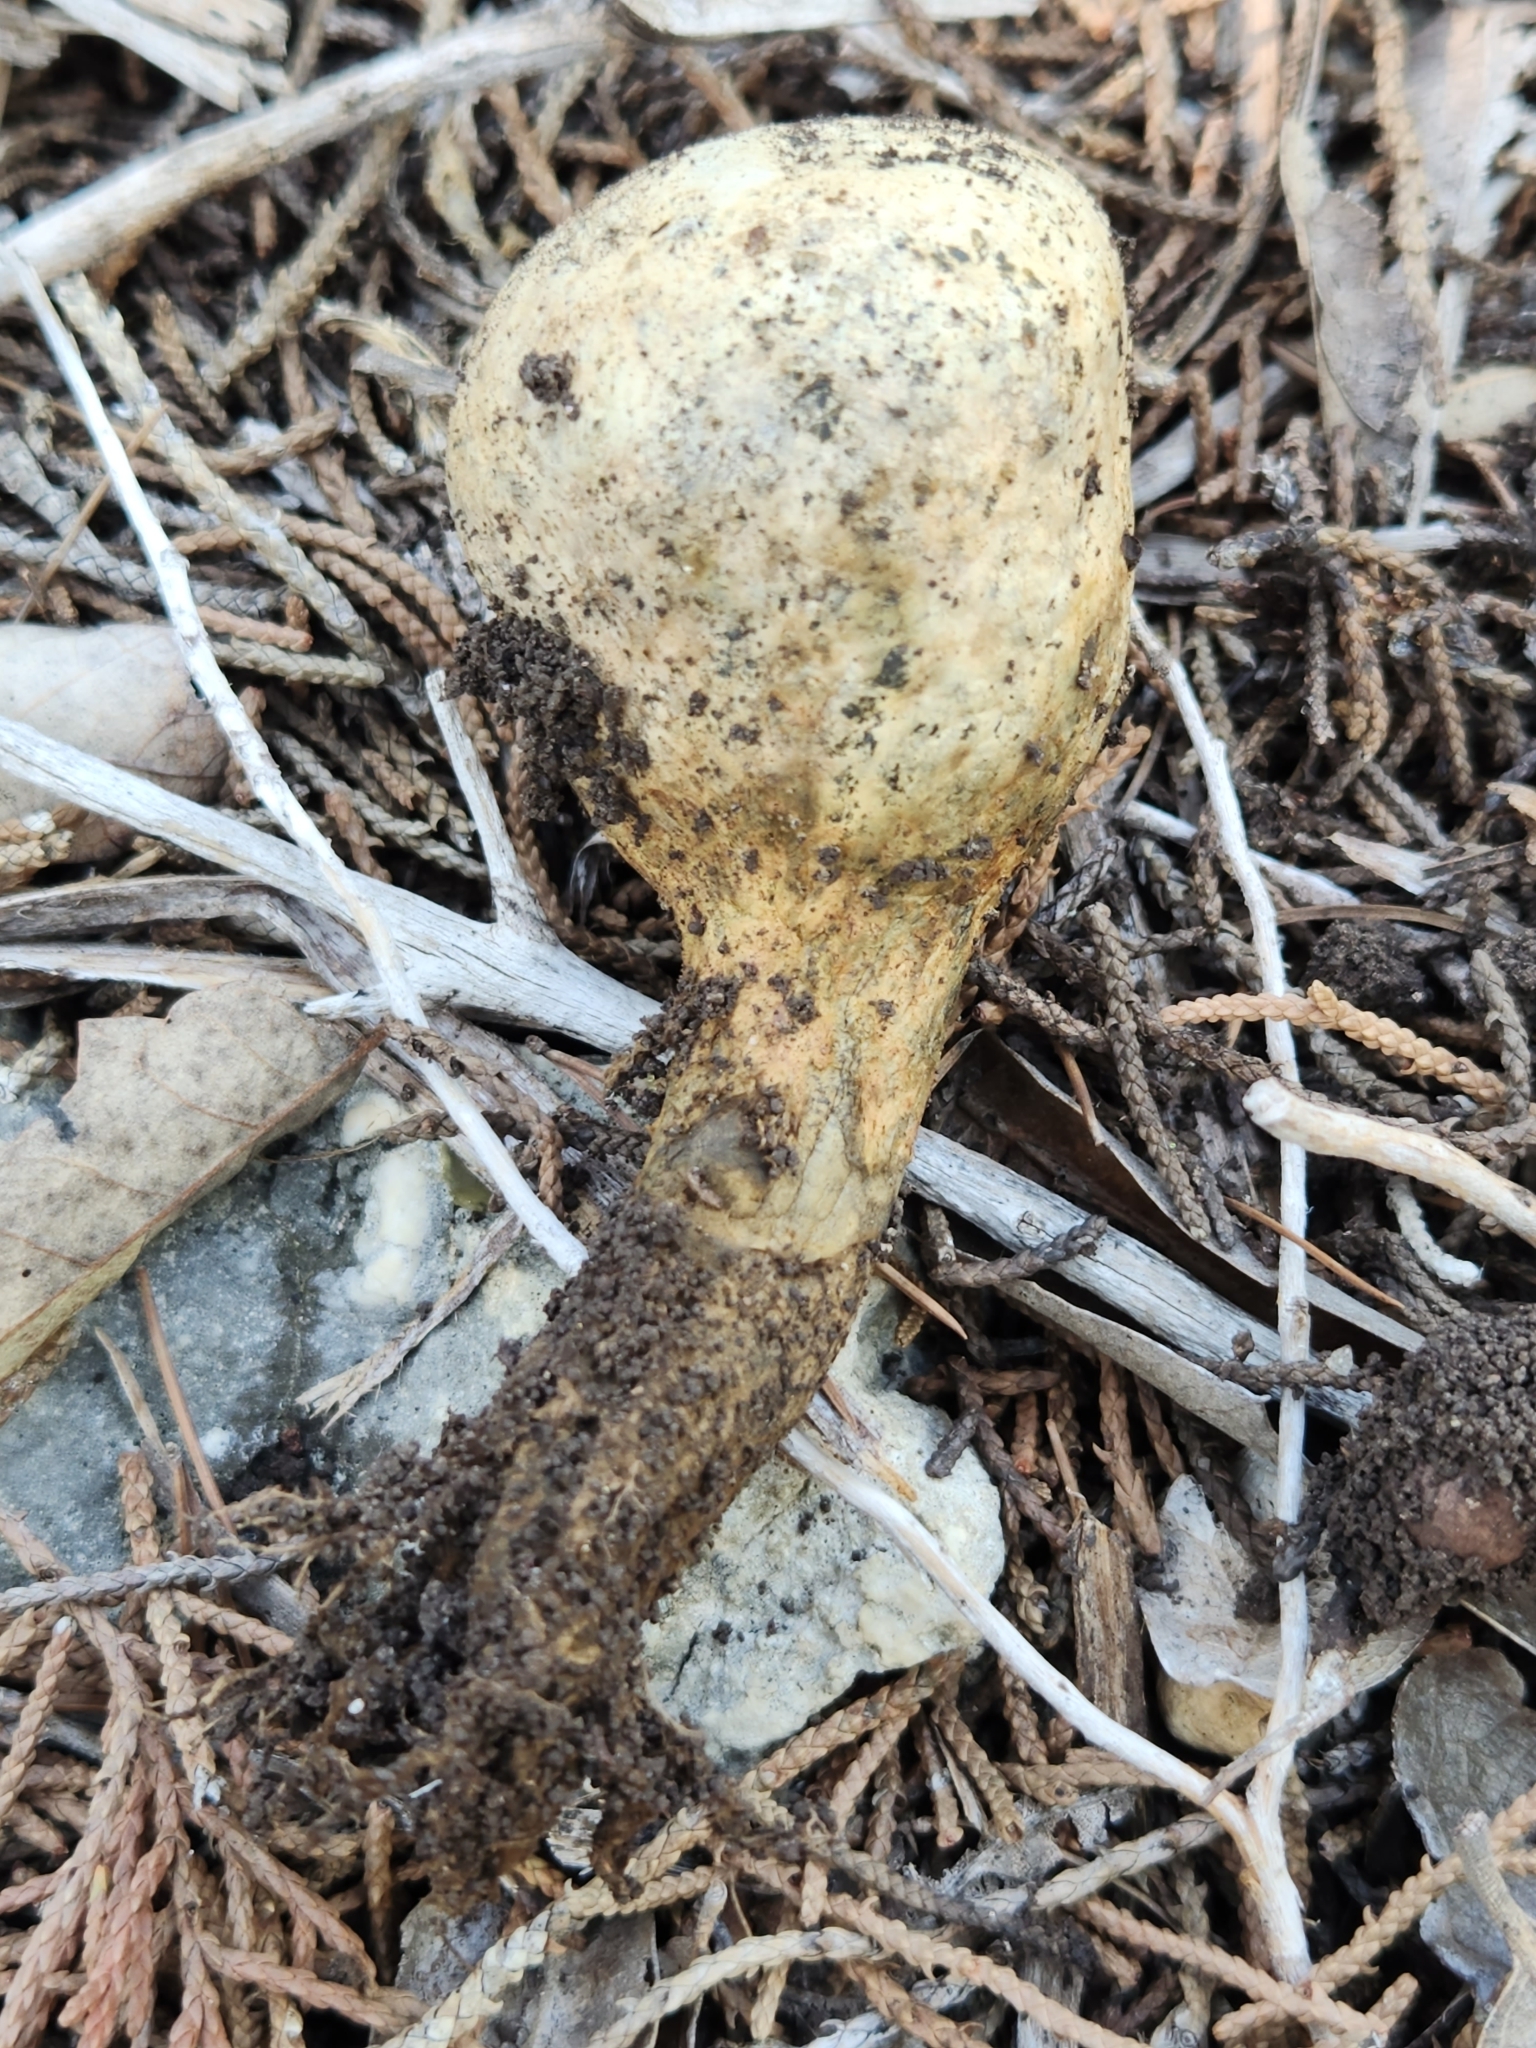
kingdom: Fungi
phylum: Basidiomycota
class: Agaricomycetes
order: Boletales
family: Sclerodermataceae
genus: Pisolithus
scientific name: Pisolithus arenarius
